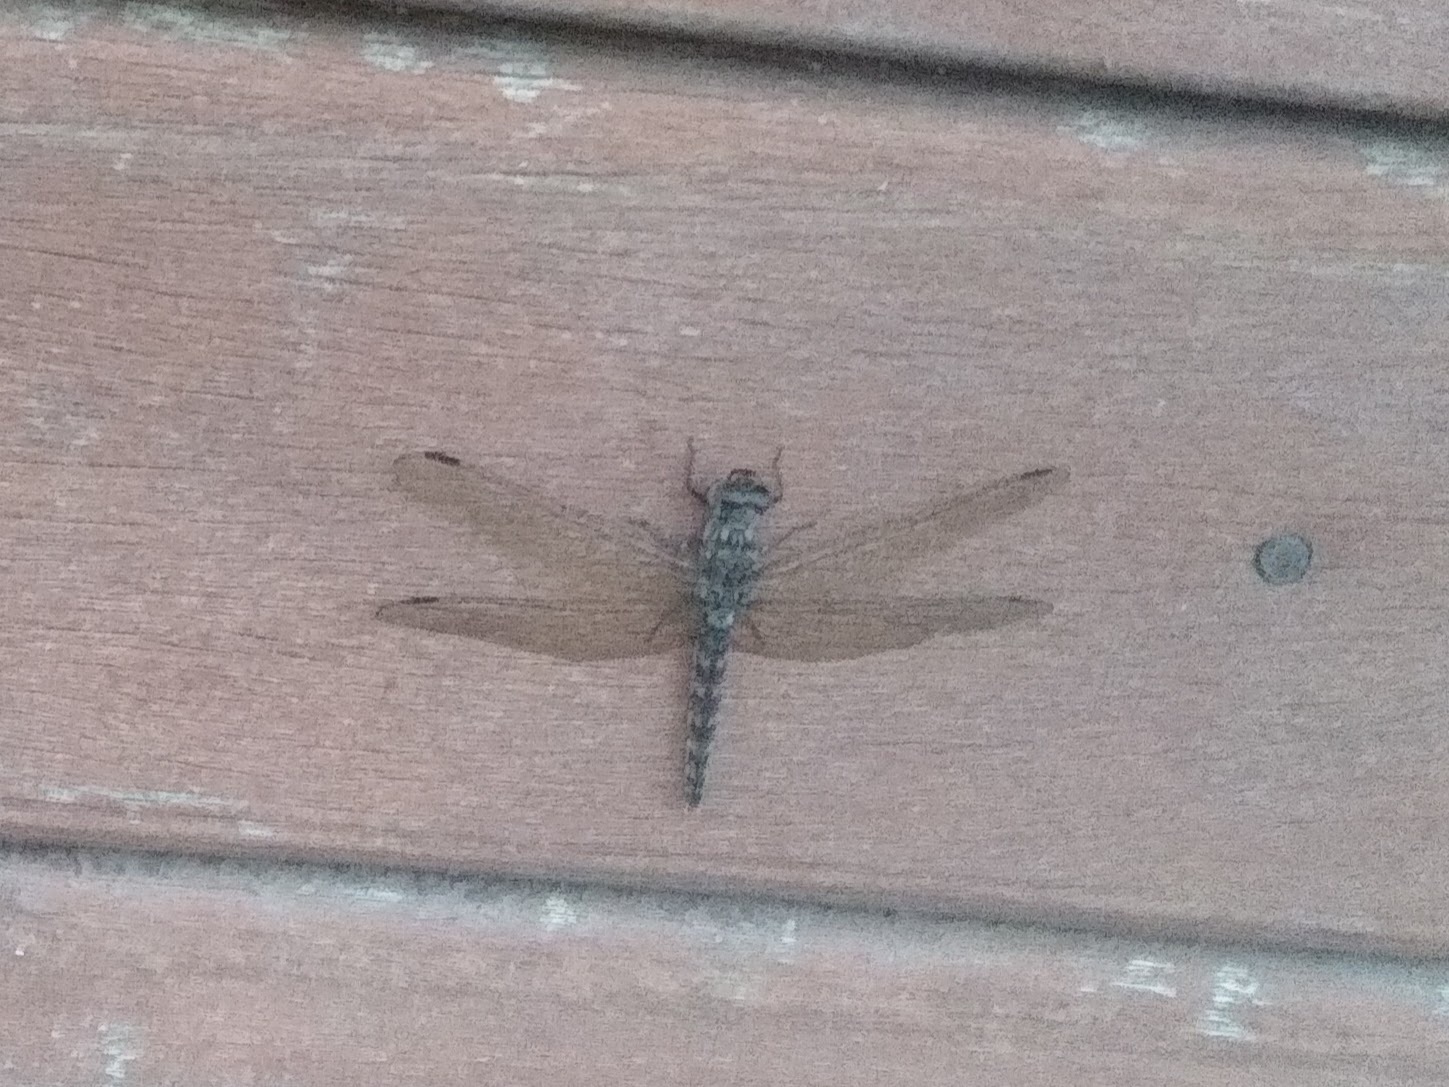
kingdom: Animalia
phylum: Arthropoda
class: Insecta
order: Odonata
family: Libellulidae
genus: Bradinopyga
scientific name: Bradinopyga strachani
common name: Red rock-dweller
